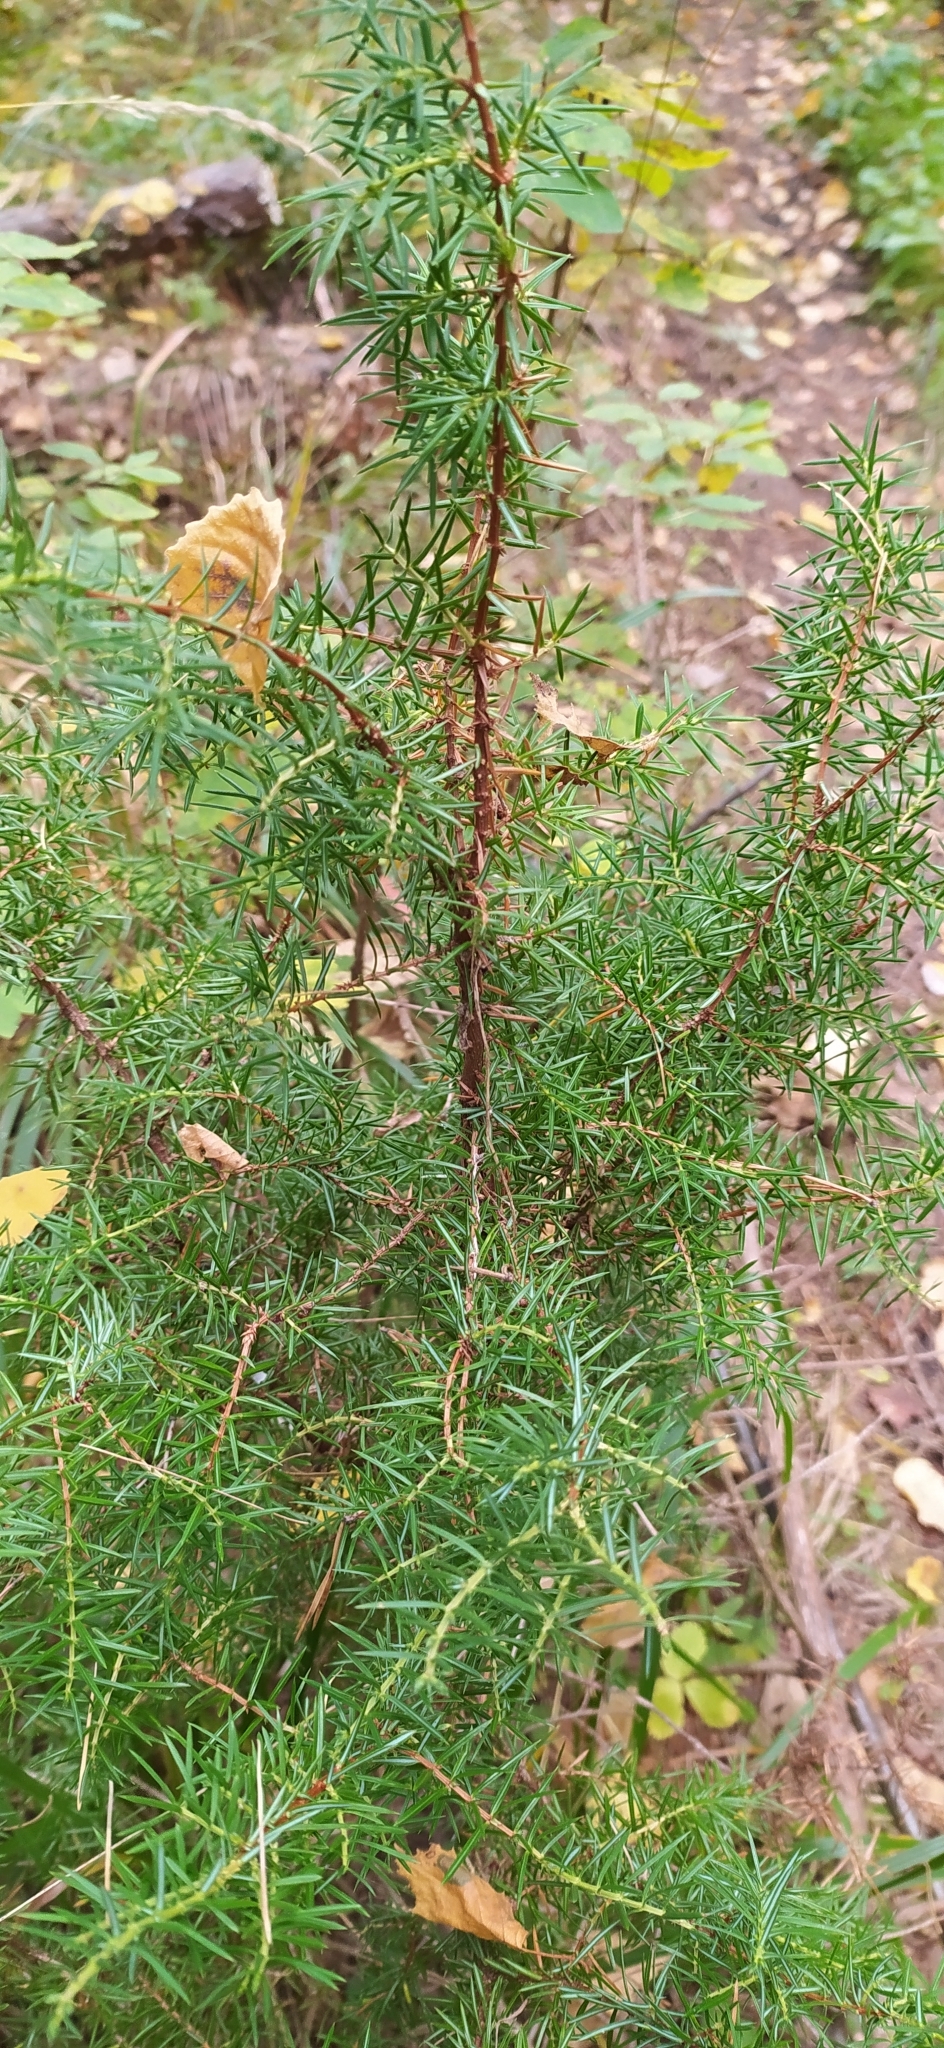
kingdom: Plantae
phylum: Tracheophyta
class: Pinopsida
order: Pinales
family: Cupressaceae
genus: Juniperus
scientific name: Juniperus communis
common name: Common juniper
